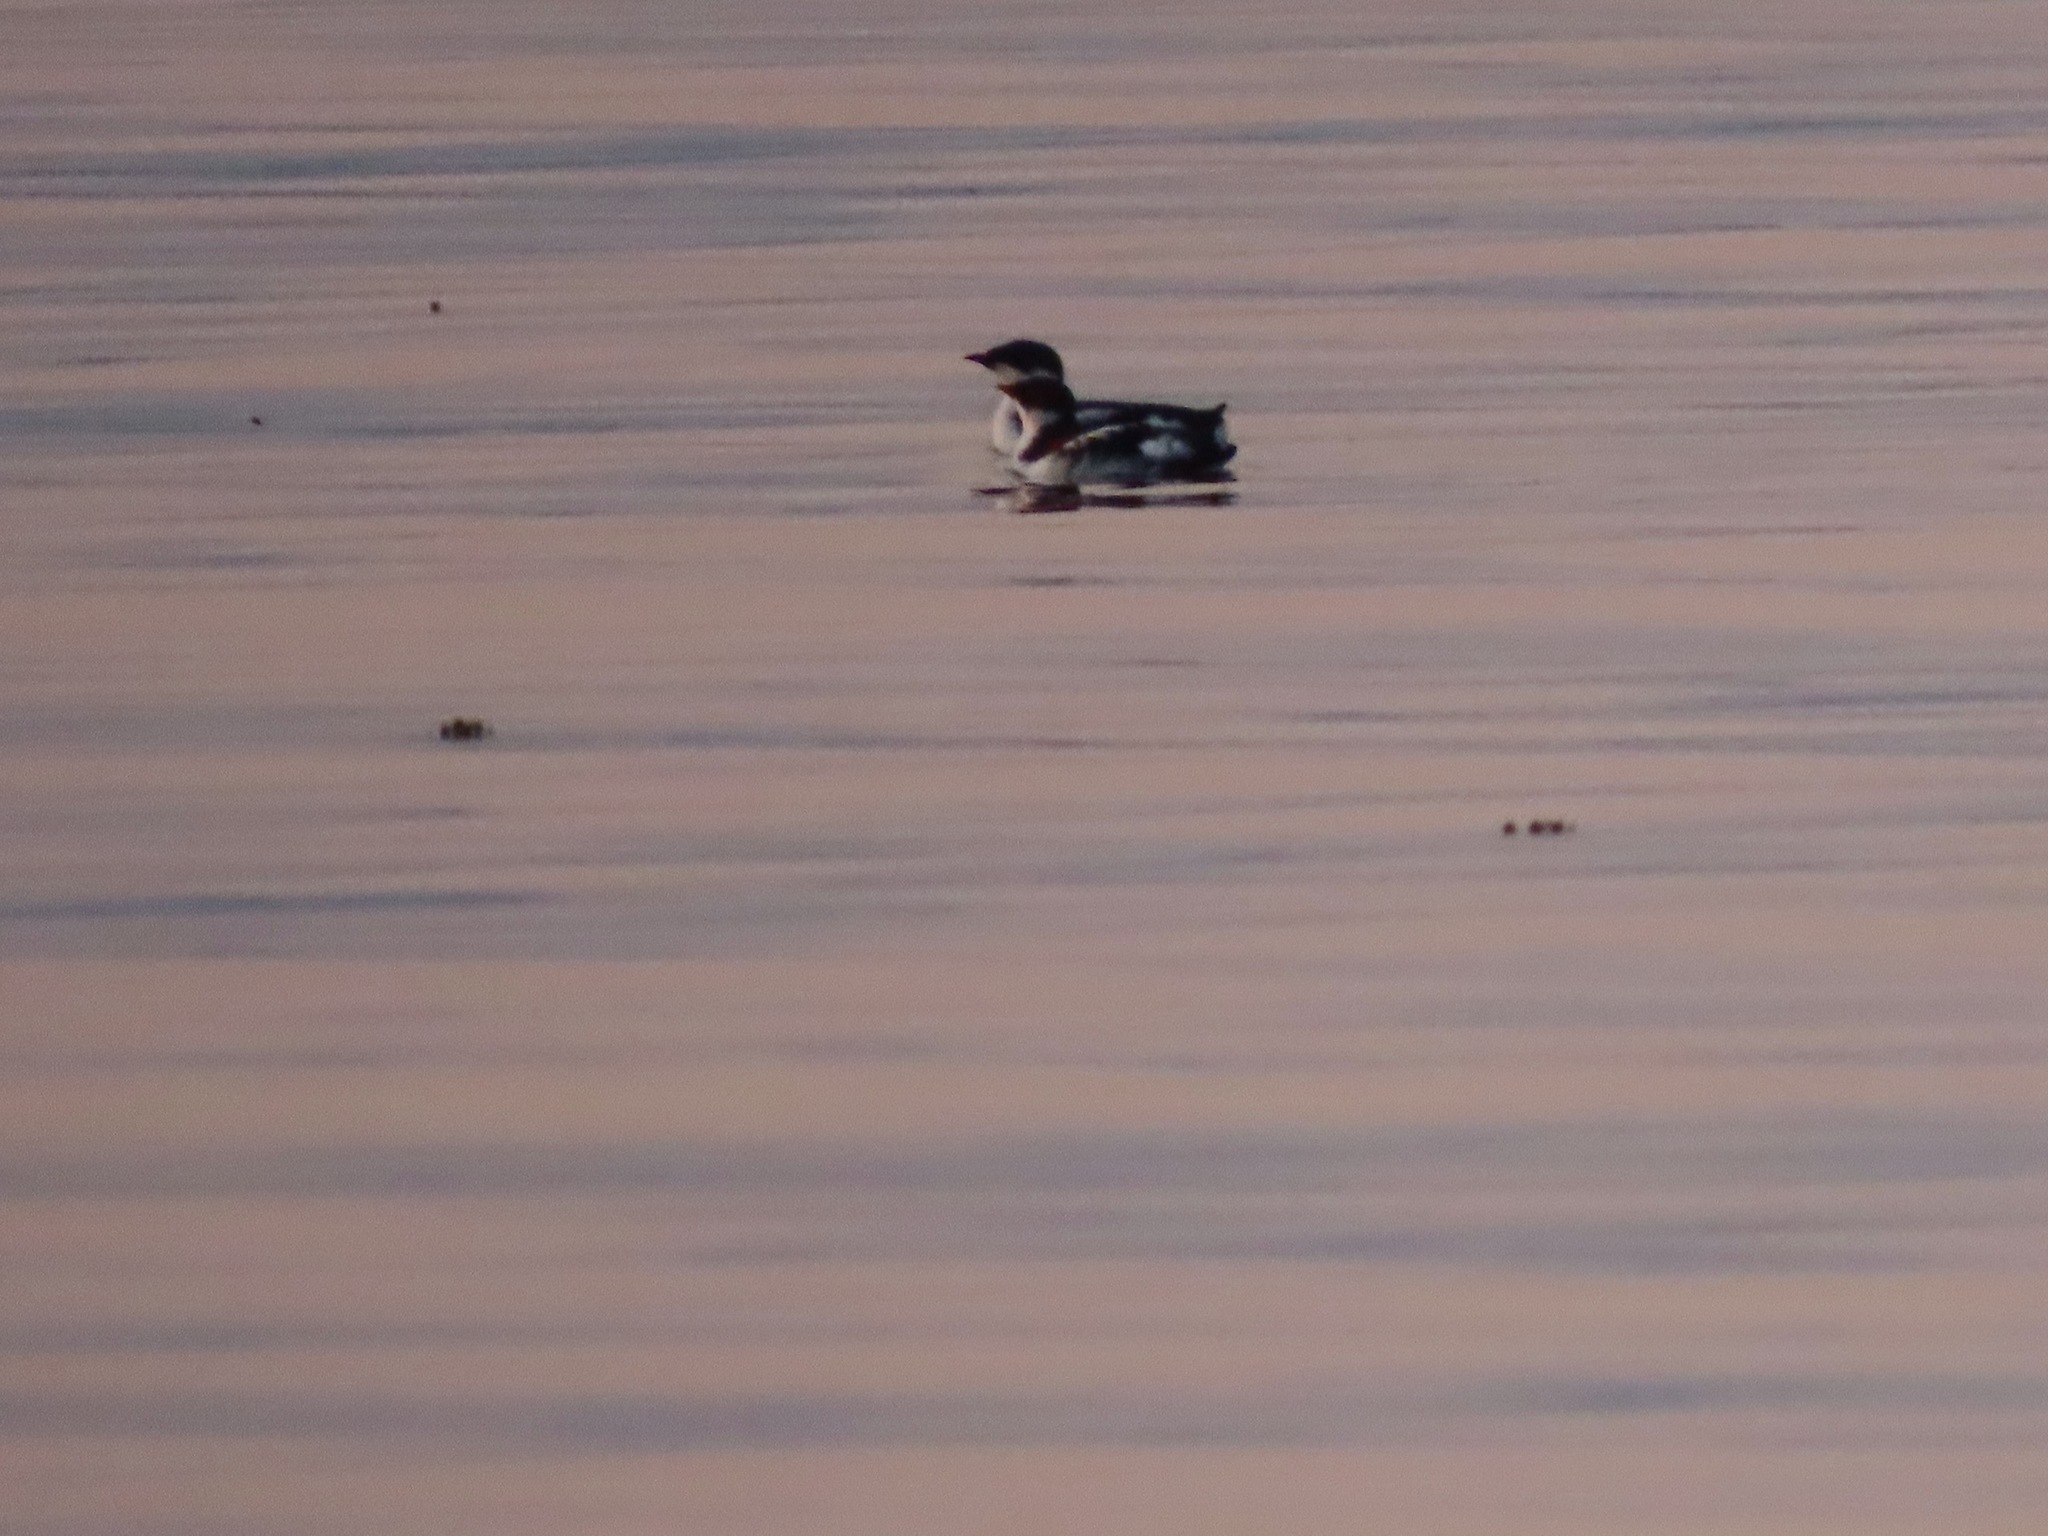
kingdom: Animalia
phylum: Chordata
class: Aves
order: Charadriiformes
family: Alcidae
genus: Brachyramphus
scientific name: Brachyramphus marmoratus
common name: Marbled murrelet
